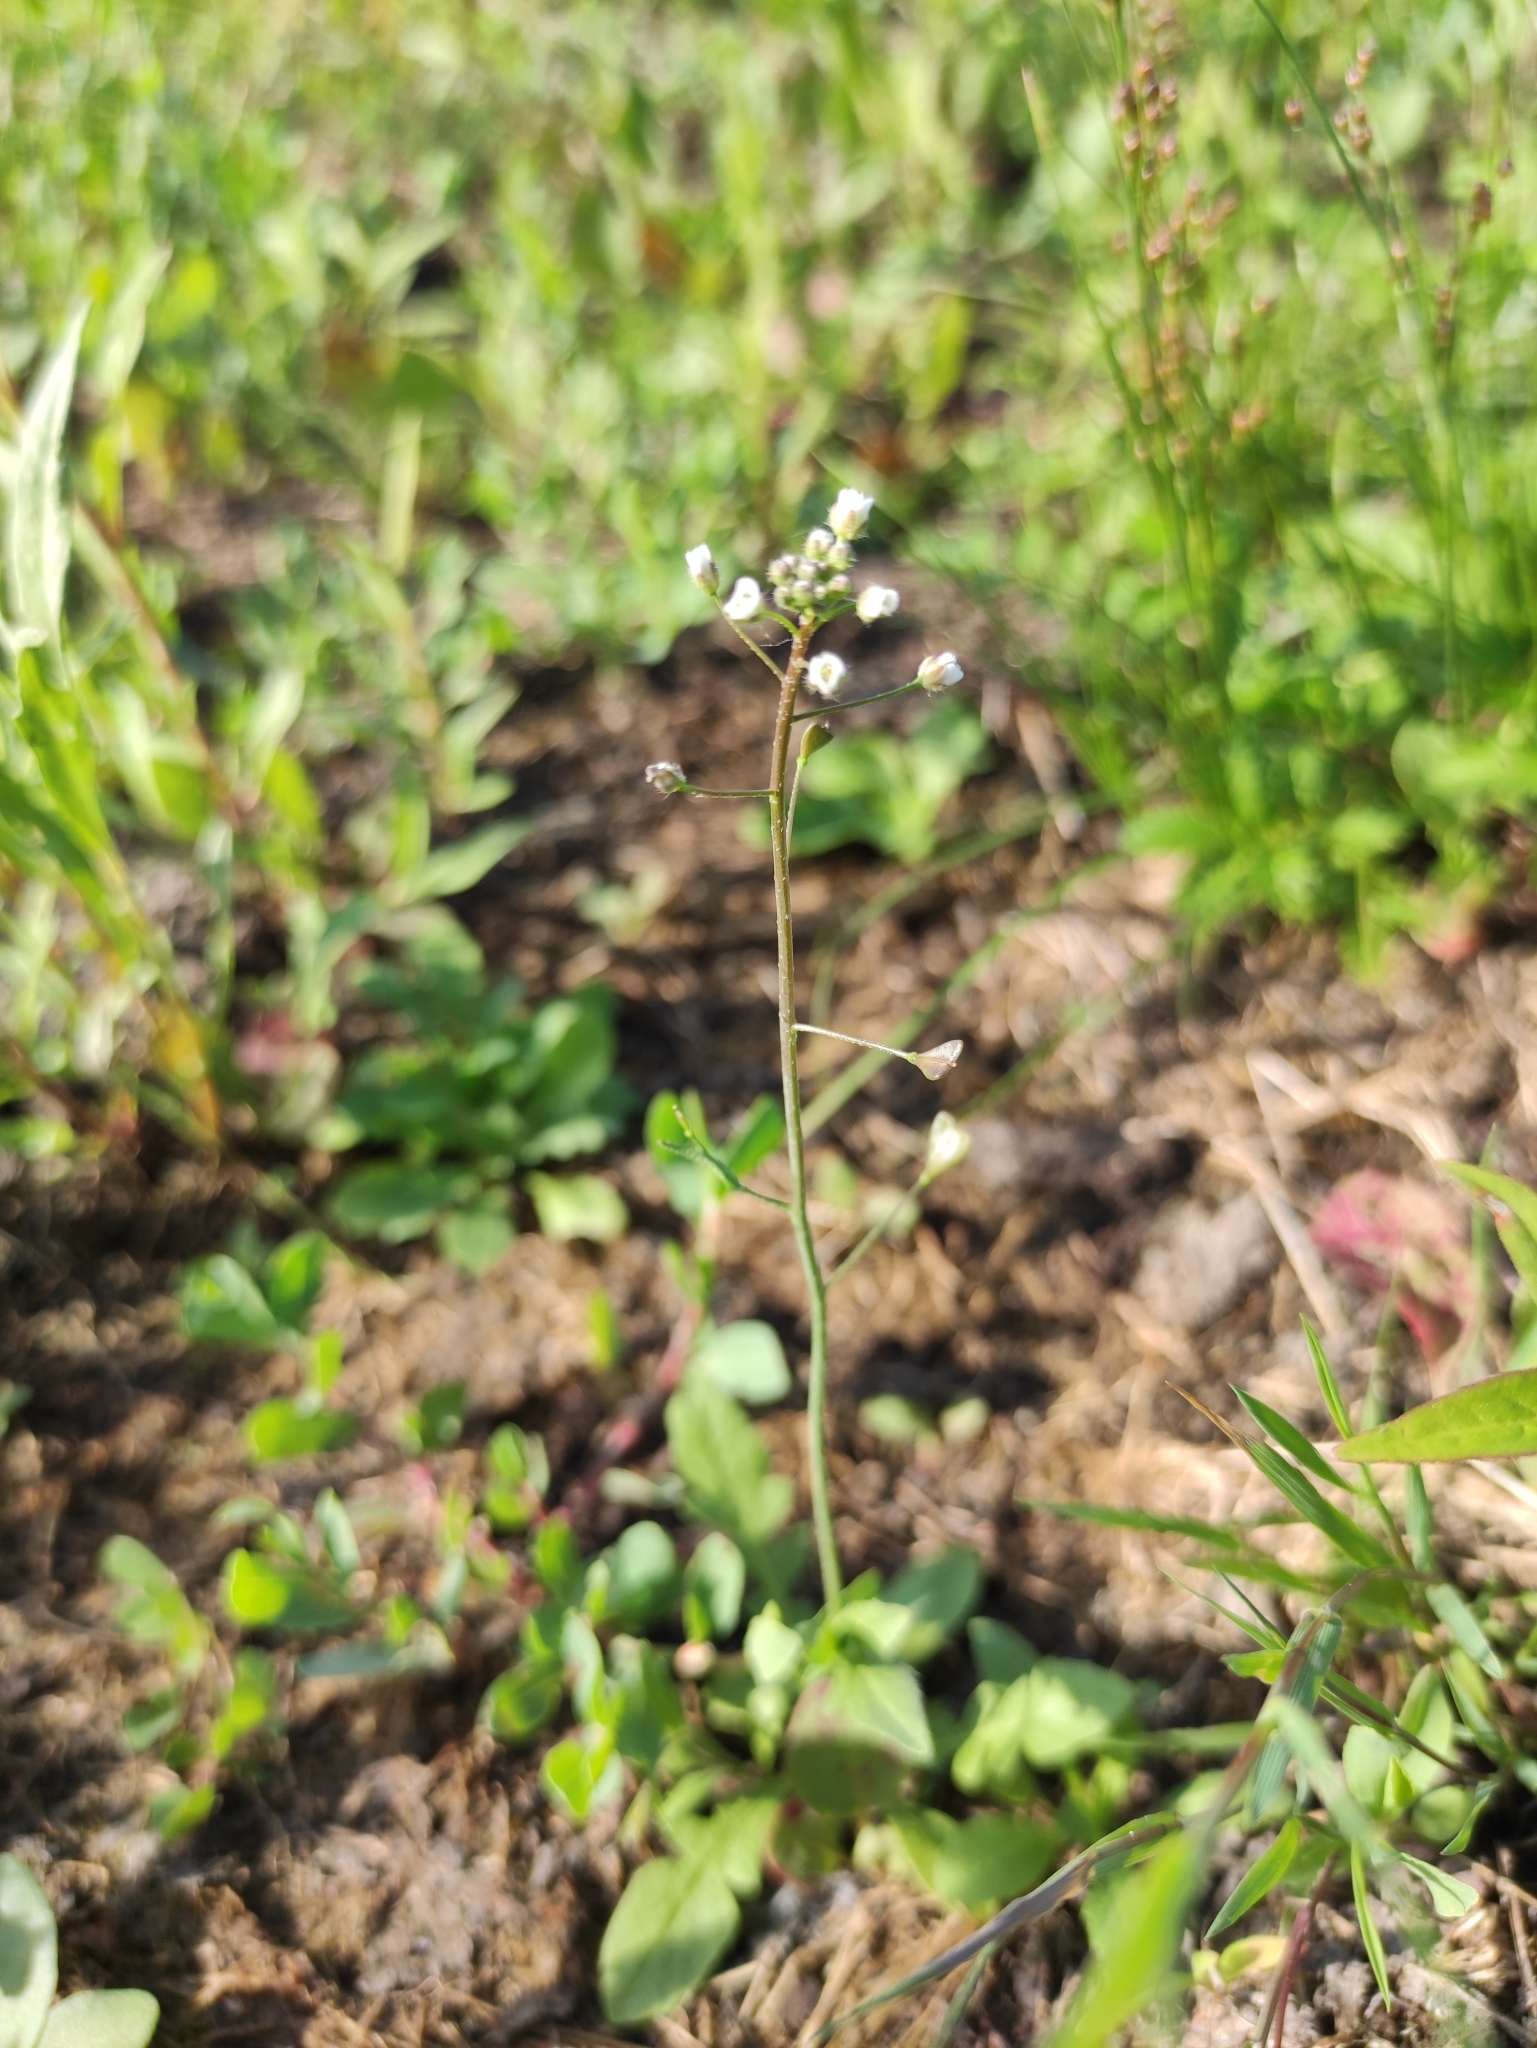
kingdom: Plantae
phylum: Tracheophyta
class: Magnoliopsida
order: Brassicales
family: Brassicaceae
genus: Capsella
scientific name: Capsella bursa-pastoris
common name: Shepherd's purse
